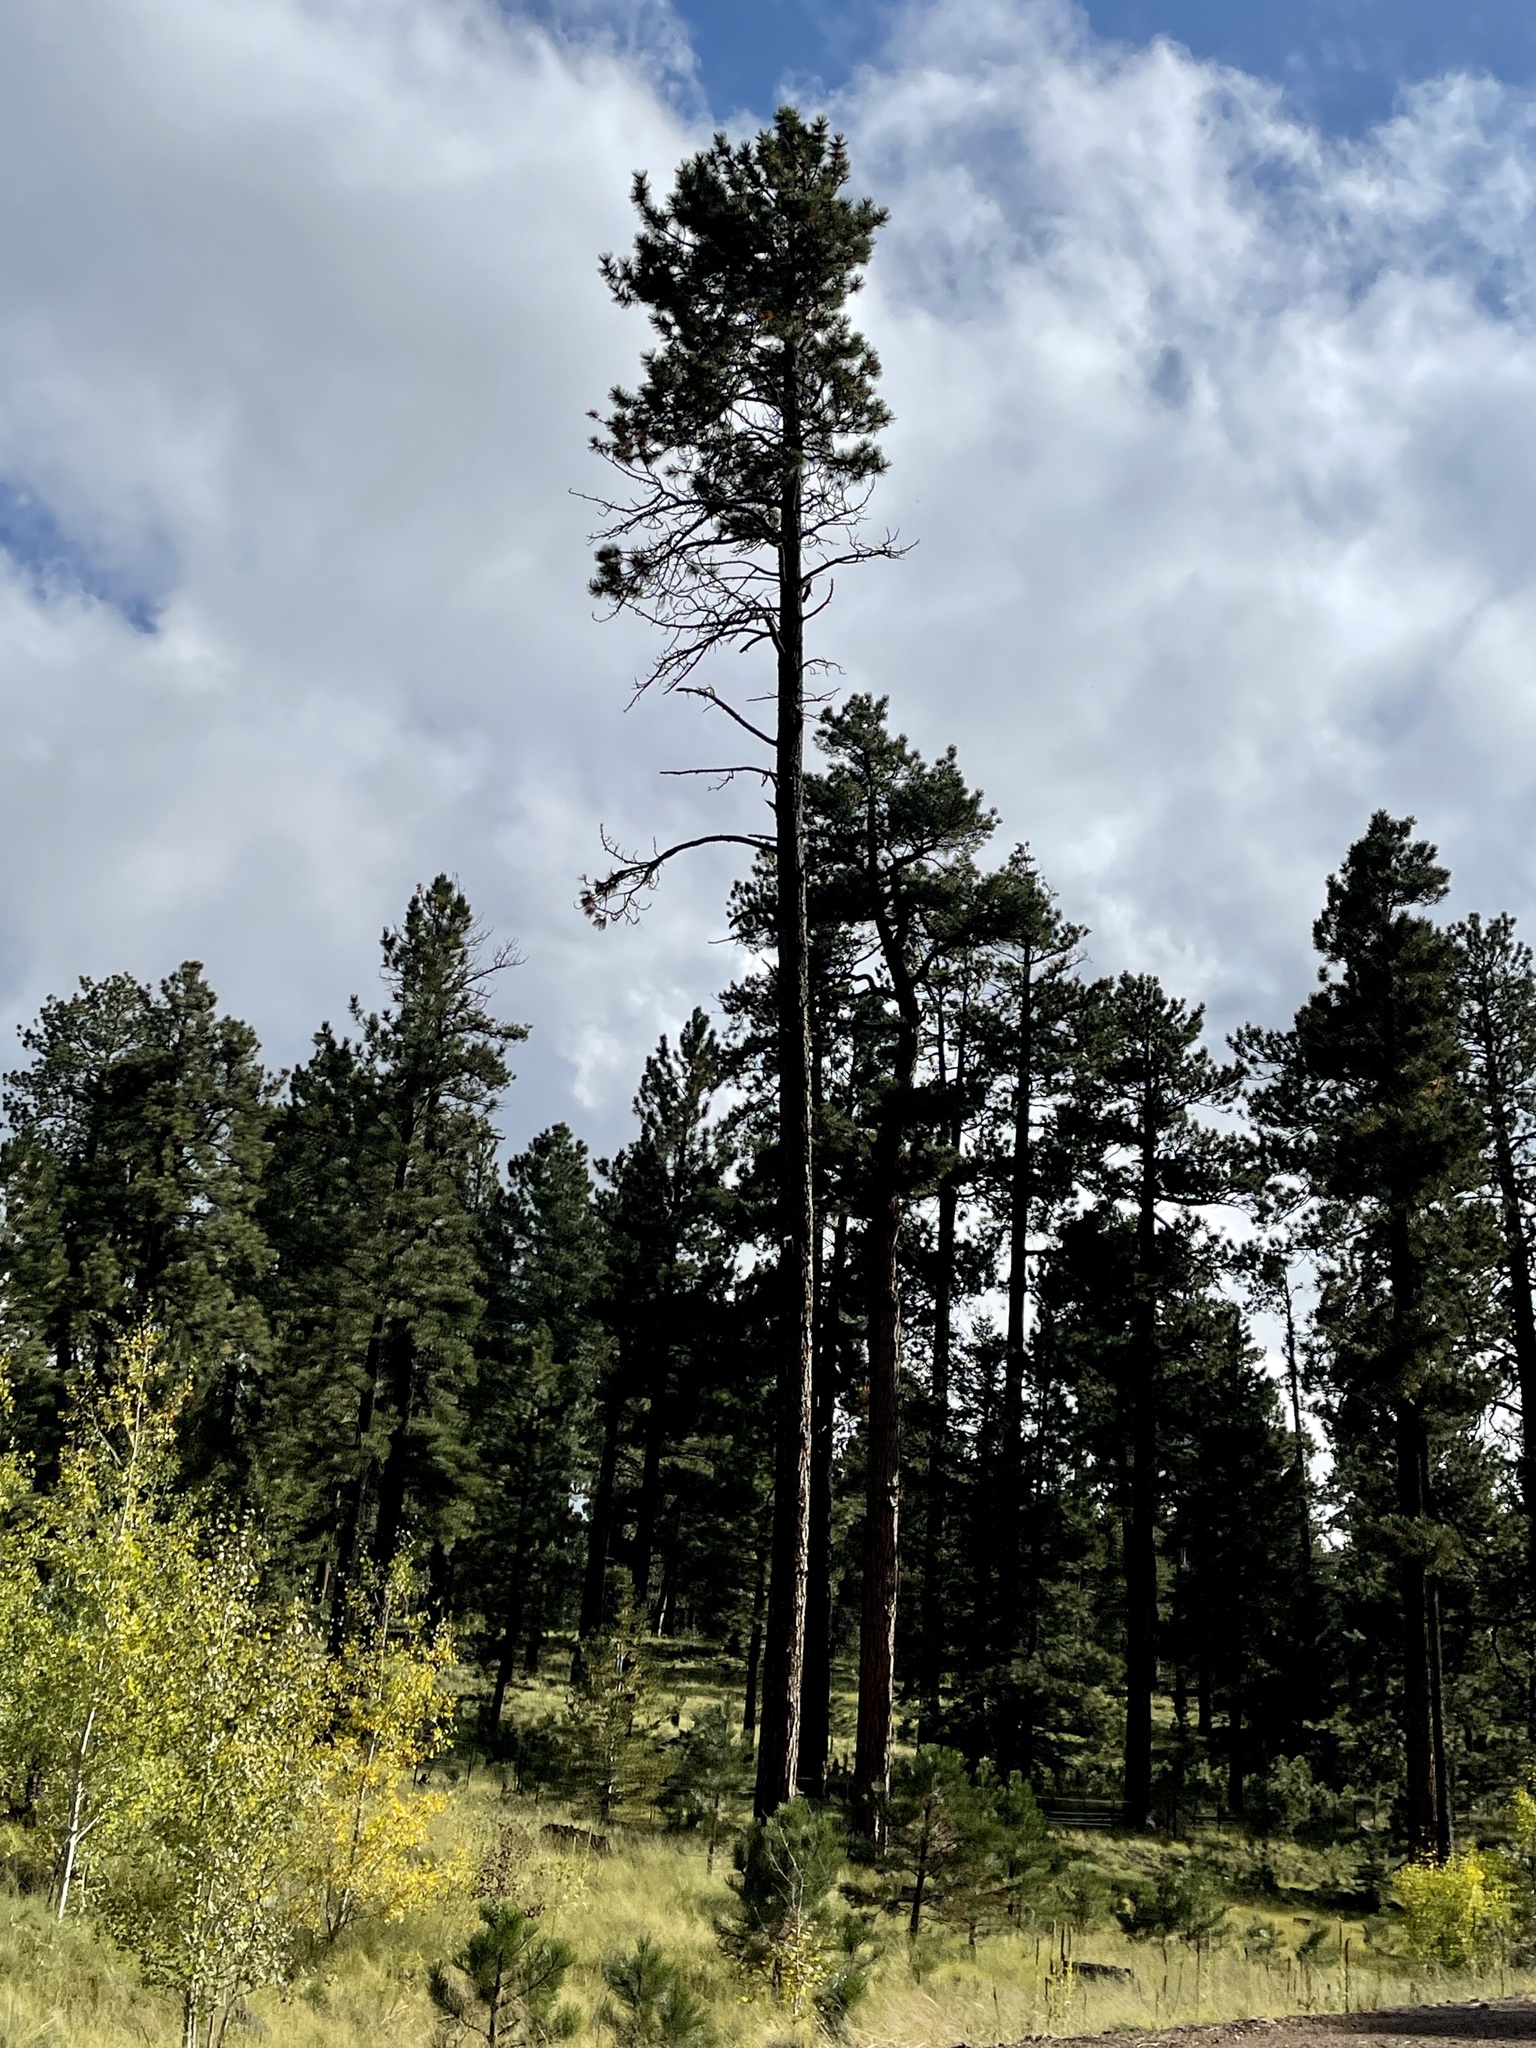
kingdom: Plantae
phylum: Tracheophyta
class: Pinopsida
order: Pinales
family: Pinaceae
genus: Pinus
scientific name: Pinus ponderosa
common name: Western yellow-pine
